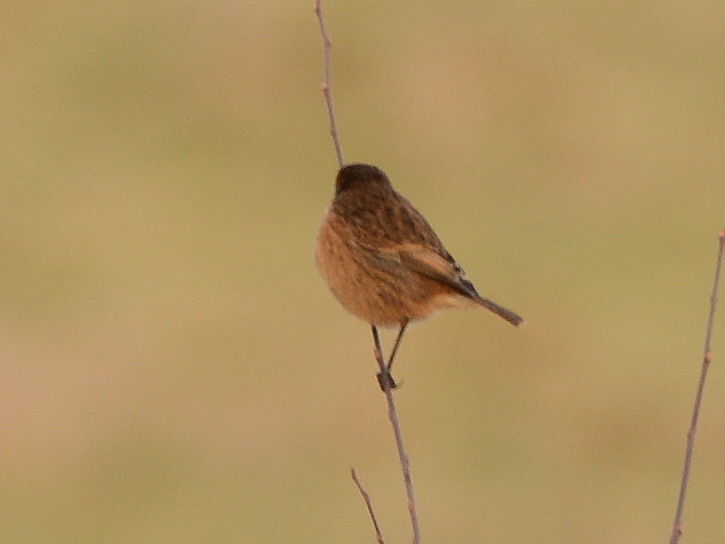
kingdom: Animalia
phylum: Chordata
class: Aves
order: Passeriformes
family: Muscicapidae
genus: Saxicola
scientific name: Saxicola rubicola
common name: European stonechat
